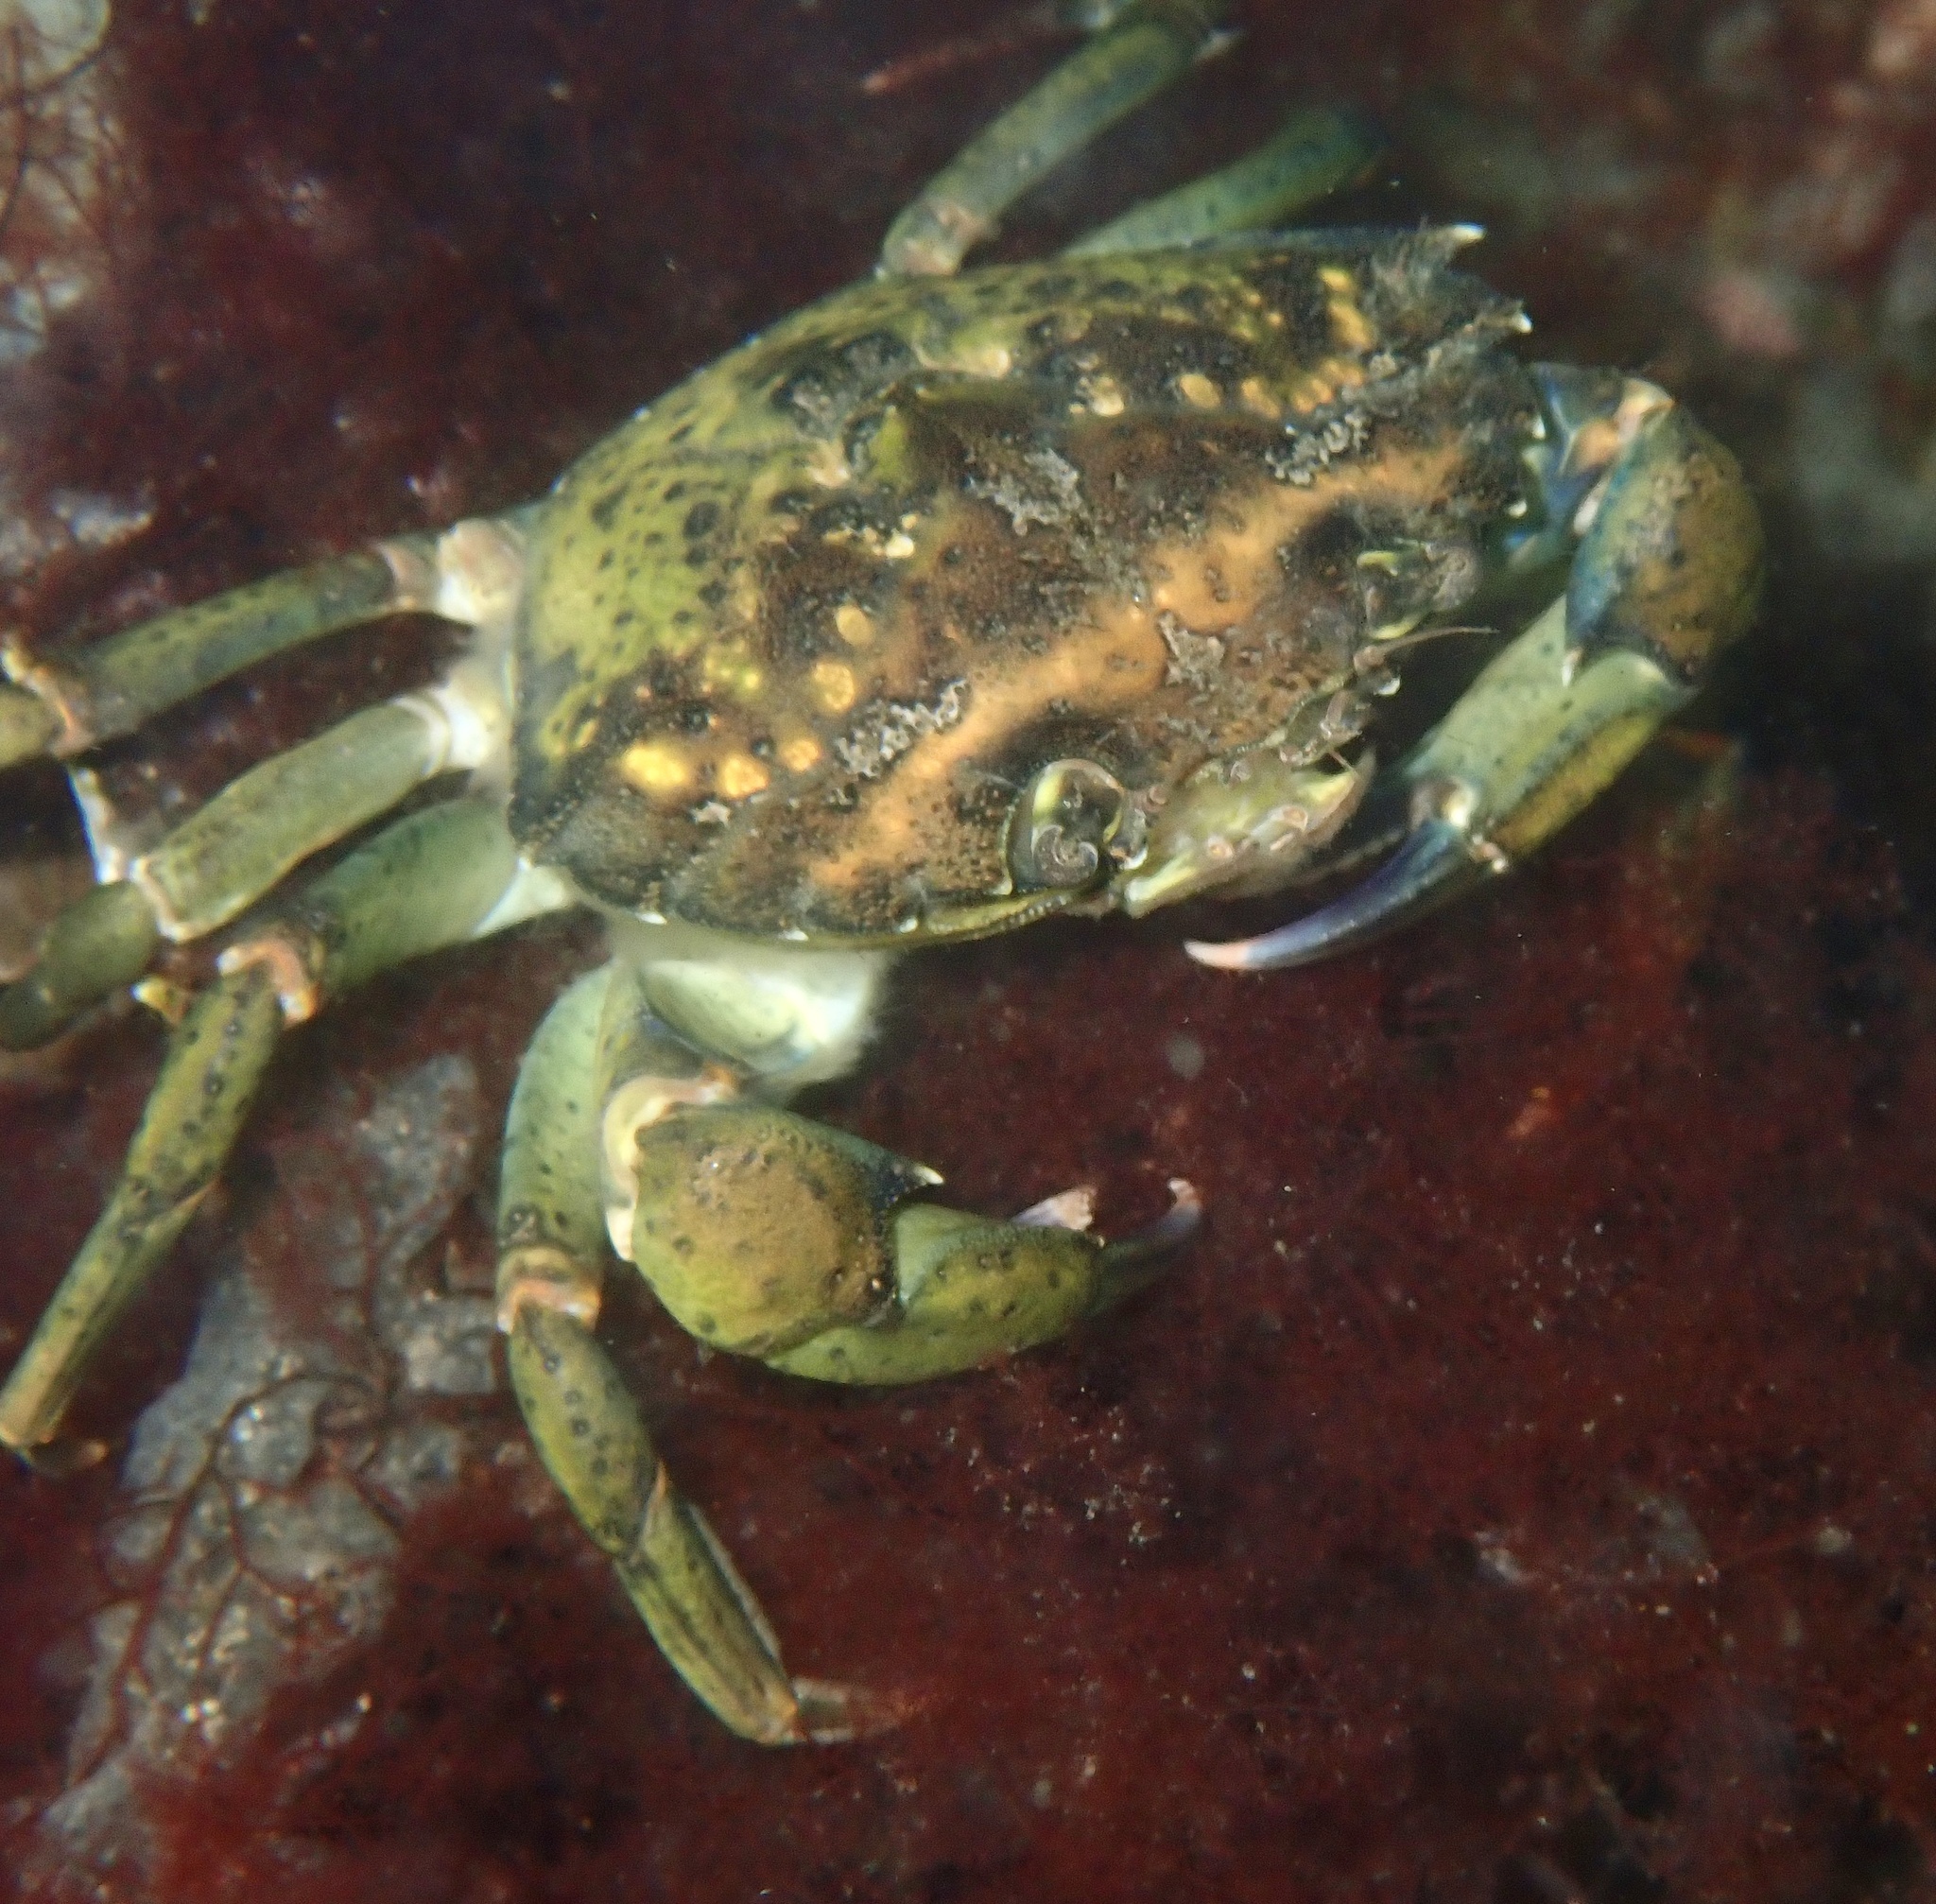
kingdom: Animalia
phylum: Arthropoda
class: Malacostraca
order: Decapoda
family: Carcinidae
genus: Carcinus
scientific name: Carcinus maenas
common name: European green crab
